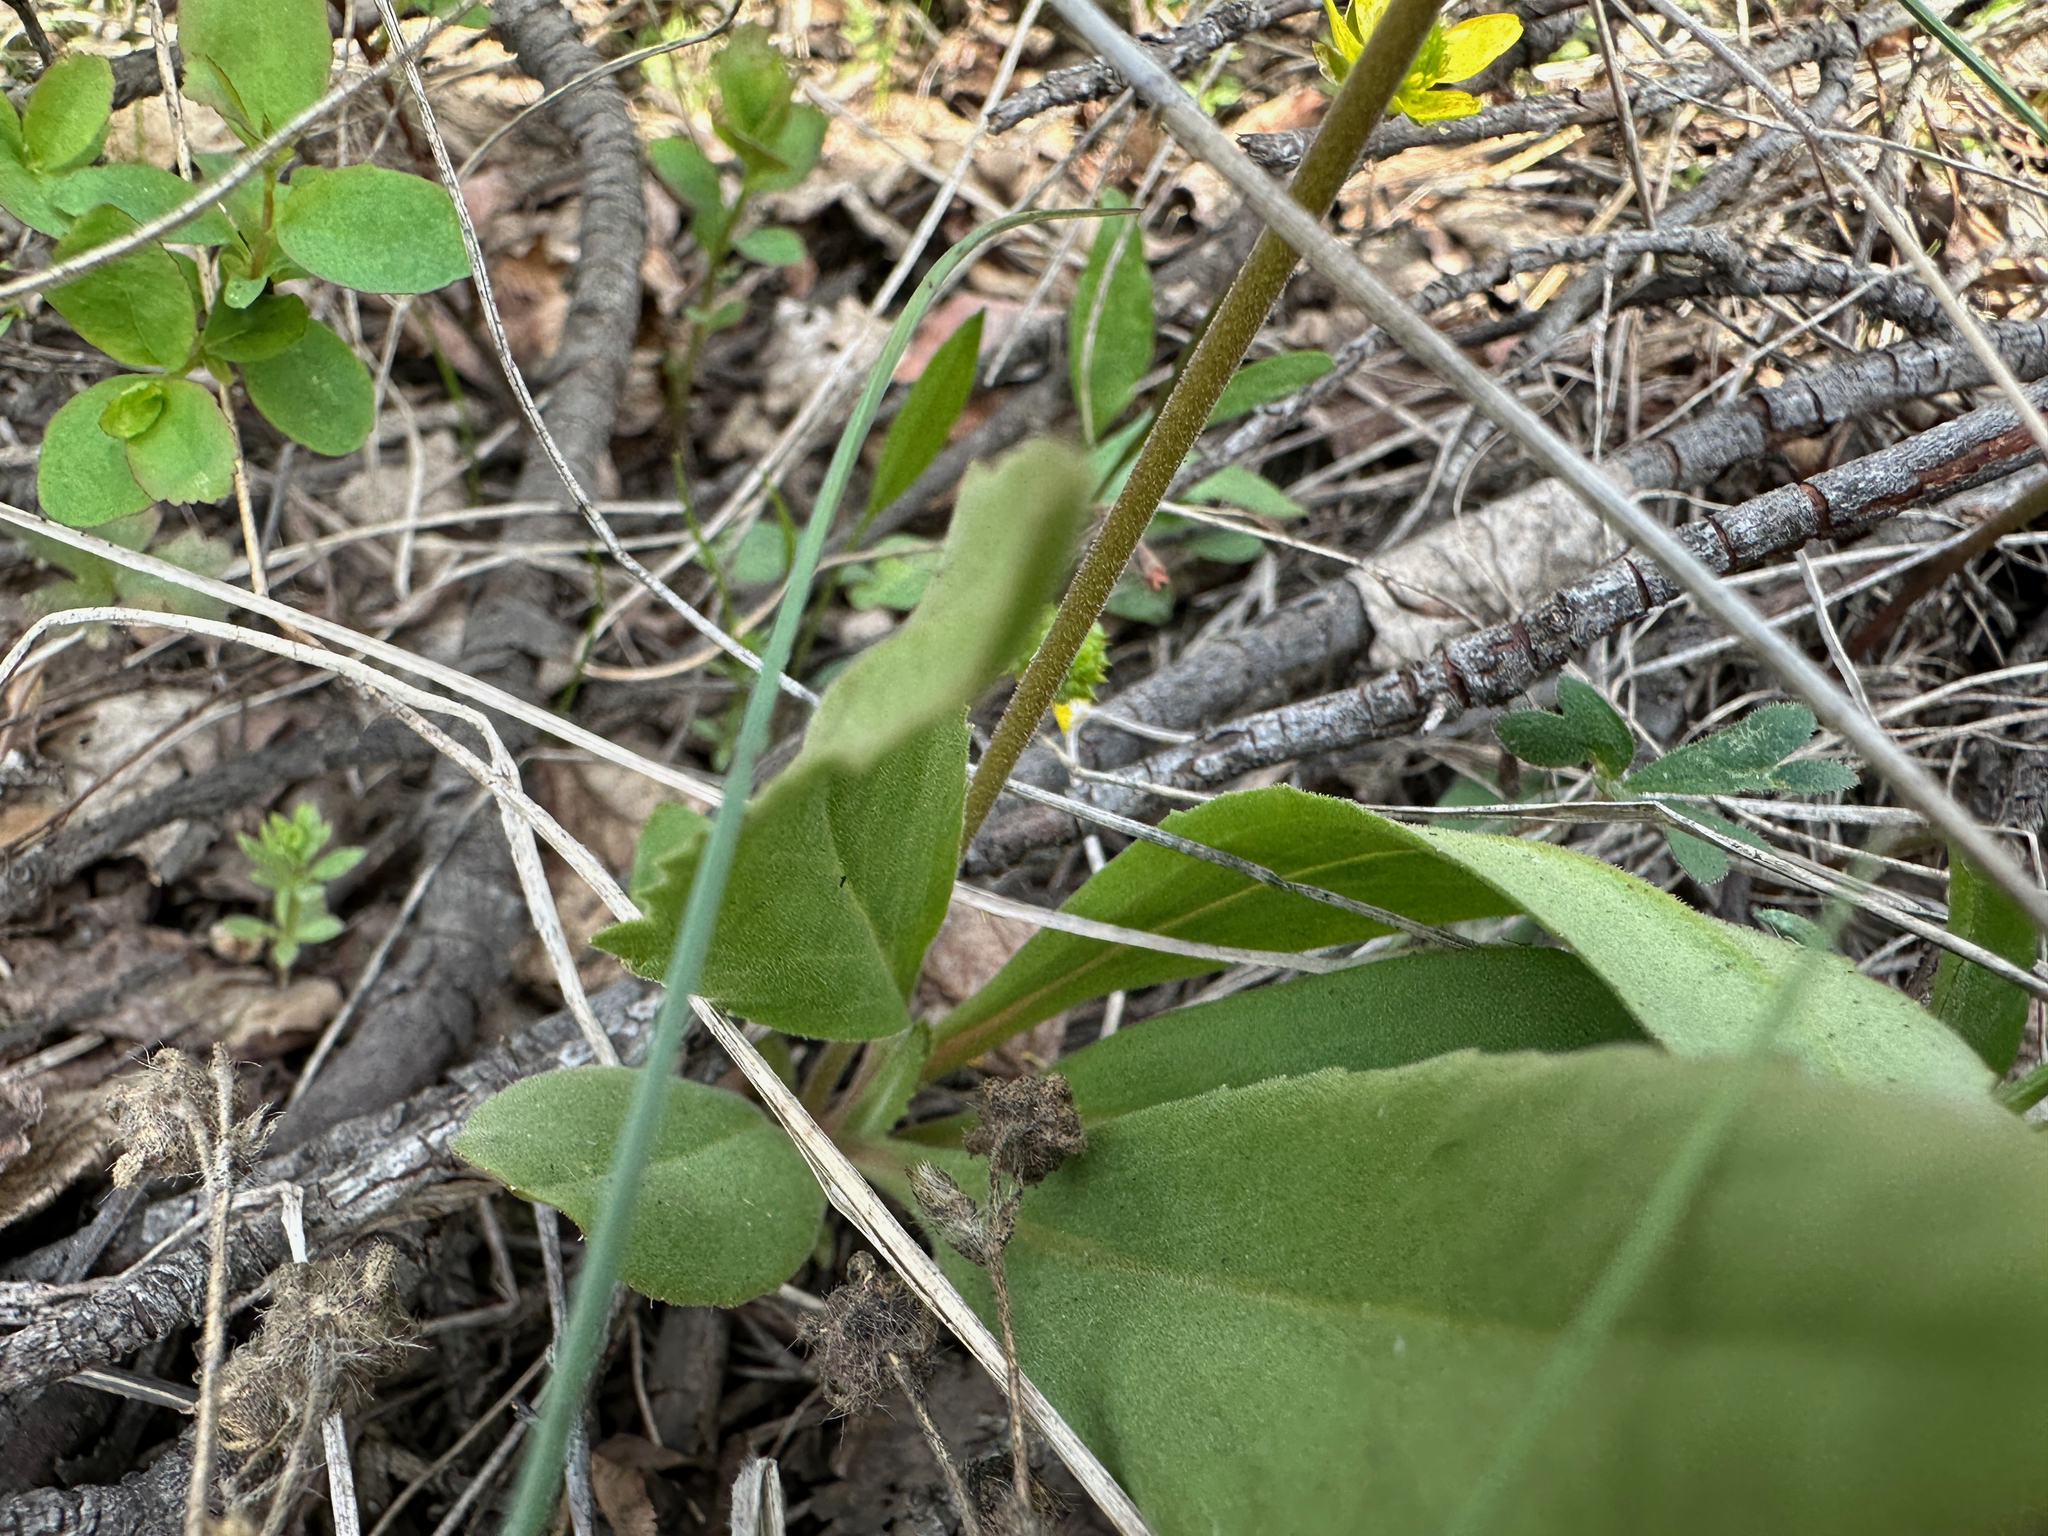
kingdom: Plantae
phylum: Tracheophyta
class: Magnoliopsida
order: Ericales
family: Primulaceae
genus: Dodecatheon
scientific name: Dodecatheon pulchellum
